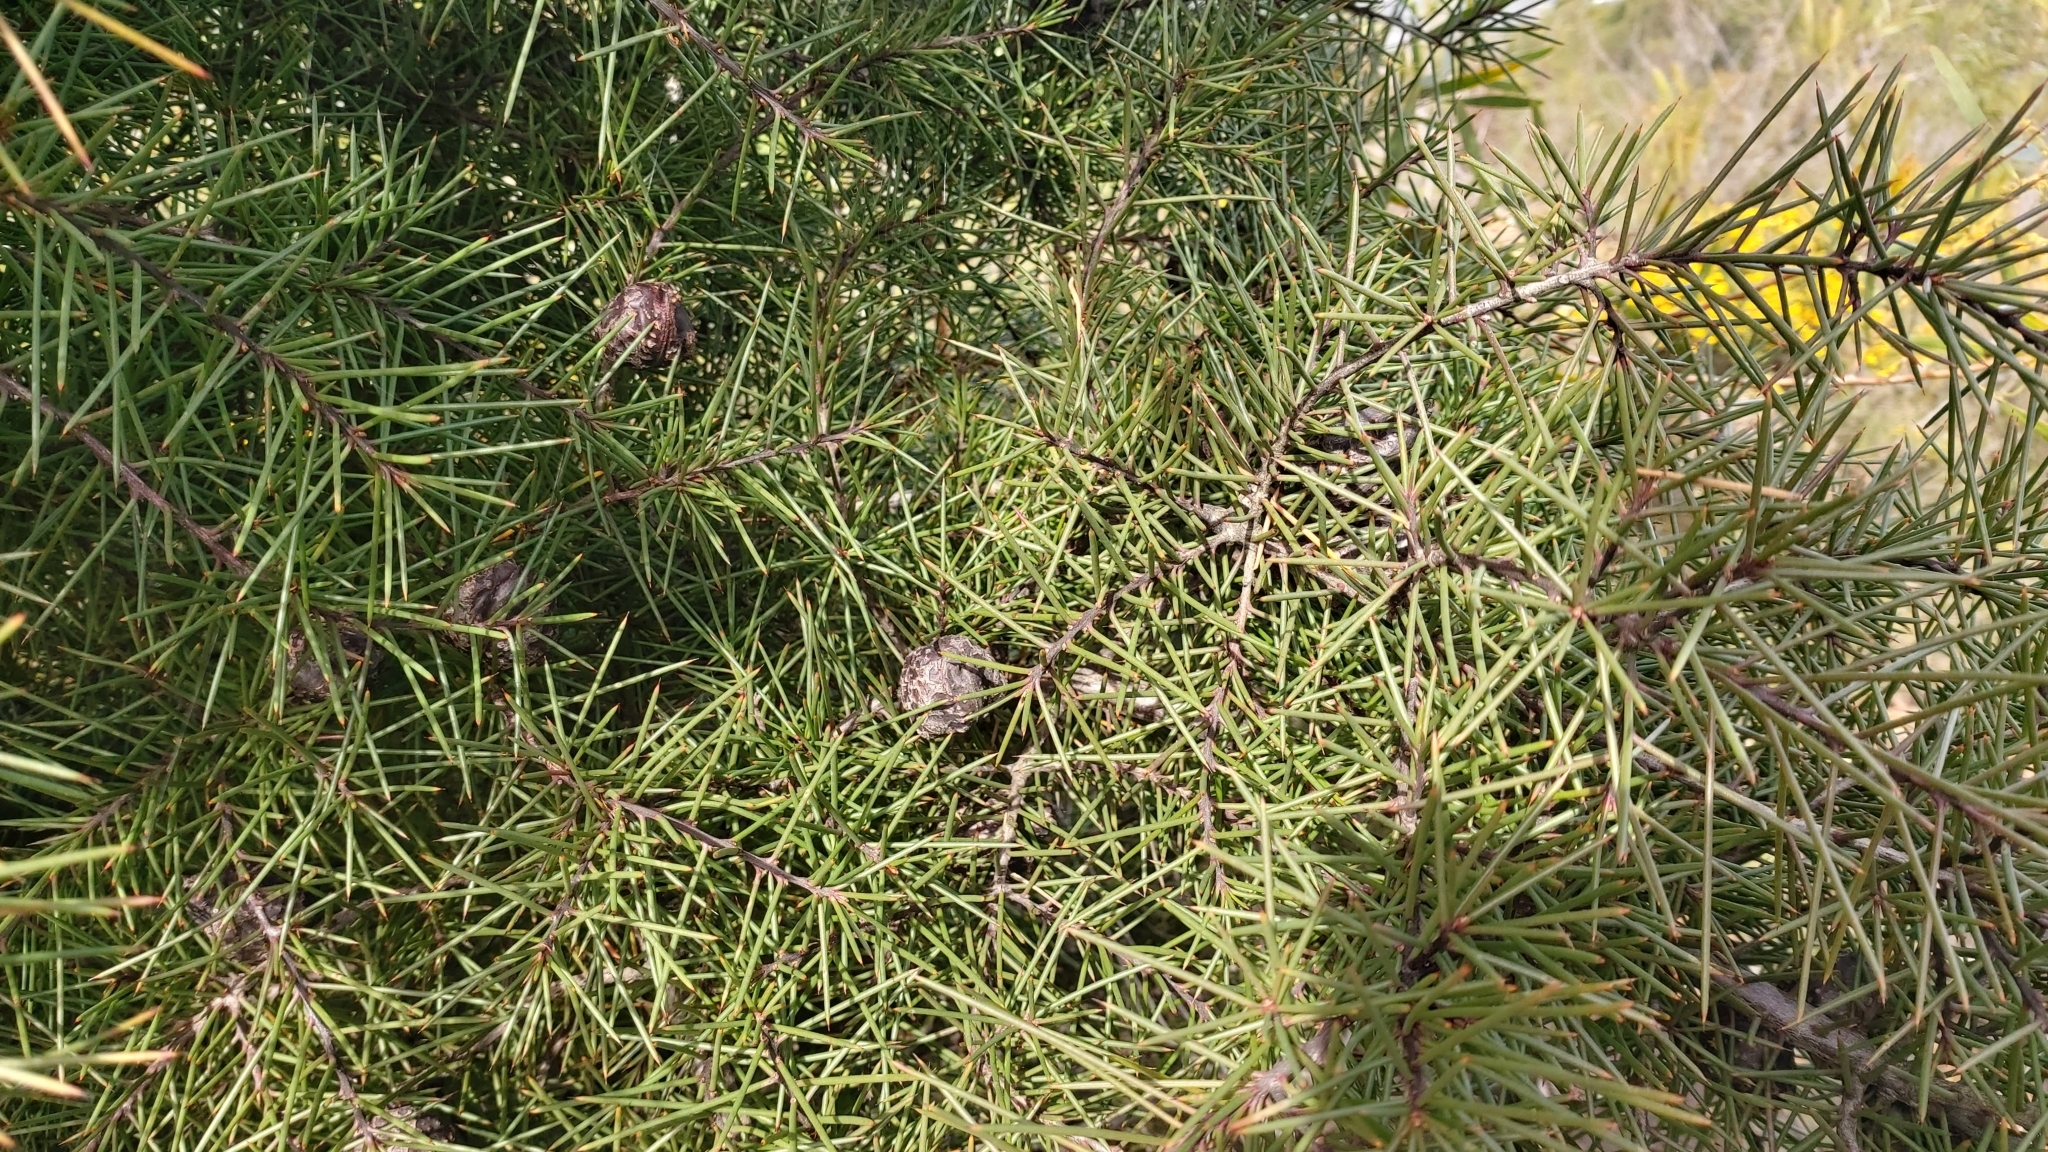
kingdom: Plantae
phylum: Tracheophyta
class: Magnoliopsida
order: Proteales
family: Proteaceae
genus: Hakea
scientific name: Hakea decurrens
